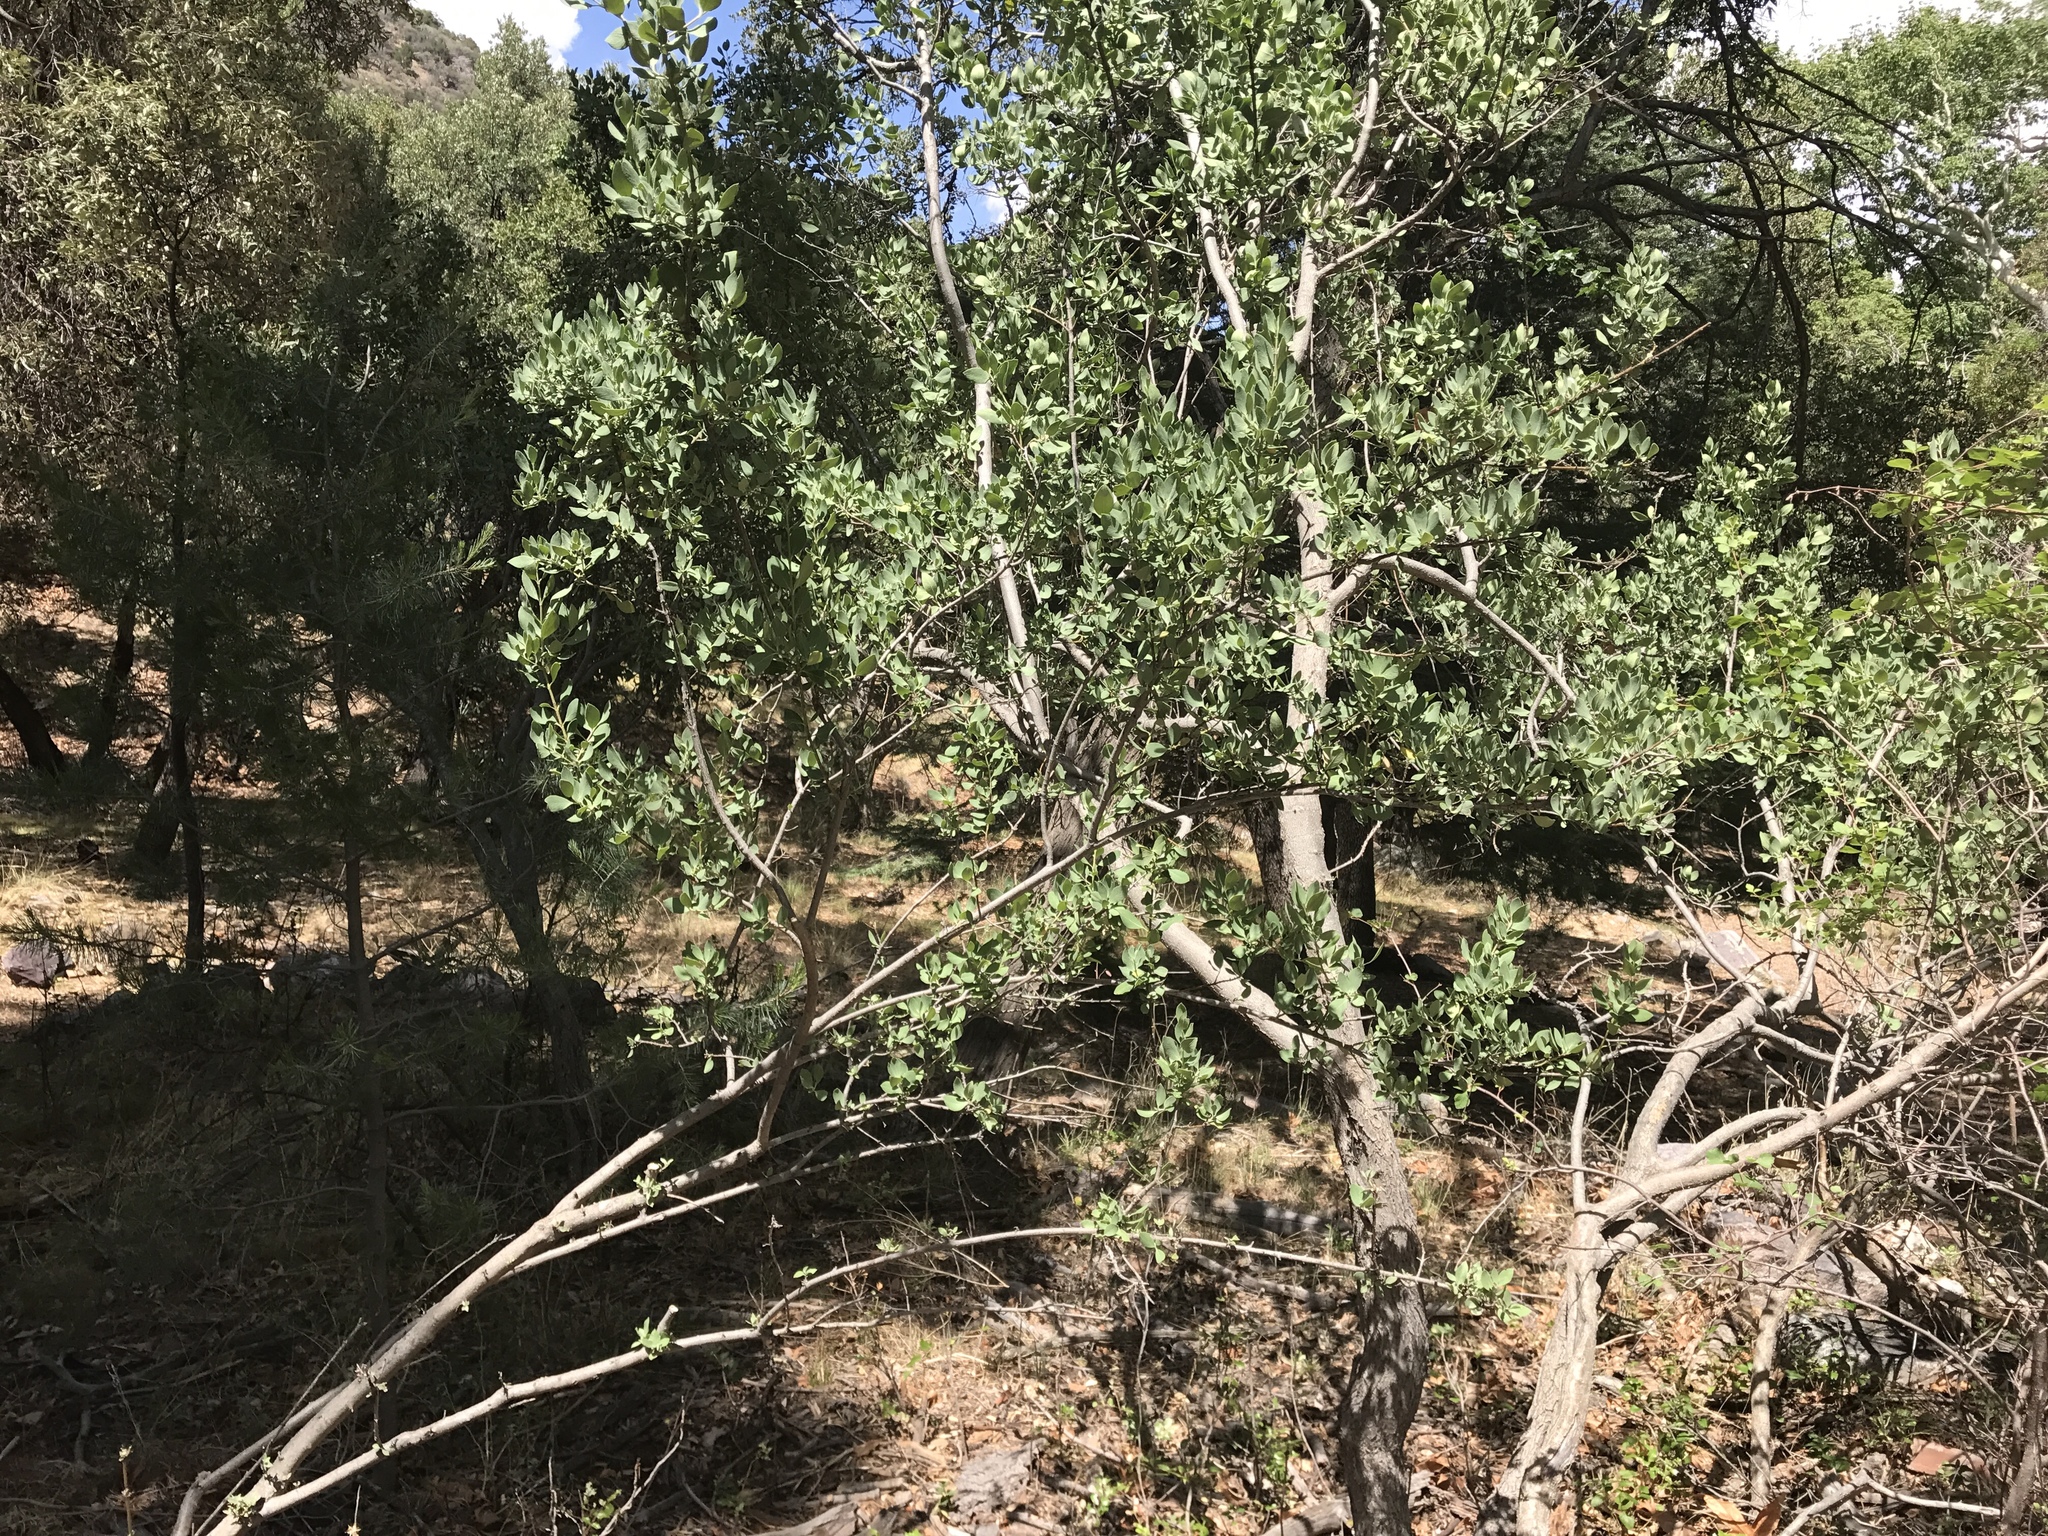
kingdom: Plantae
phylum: Tracheophyta
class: Magnoliopsida
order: Garryales
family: Garryaceae
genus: Garrya
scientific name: Garrya wrightii
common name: Wright's silktassel
